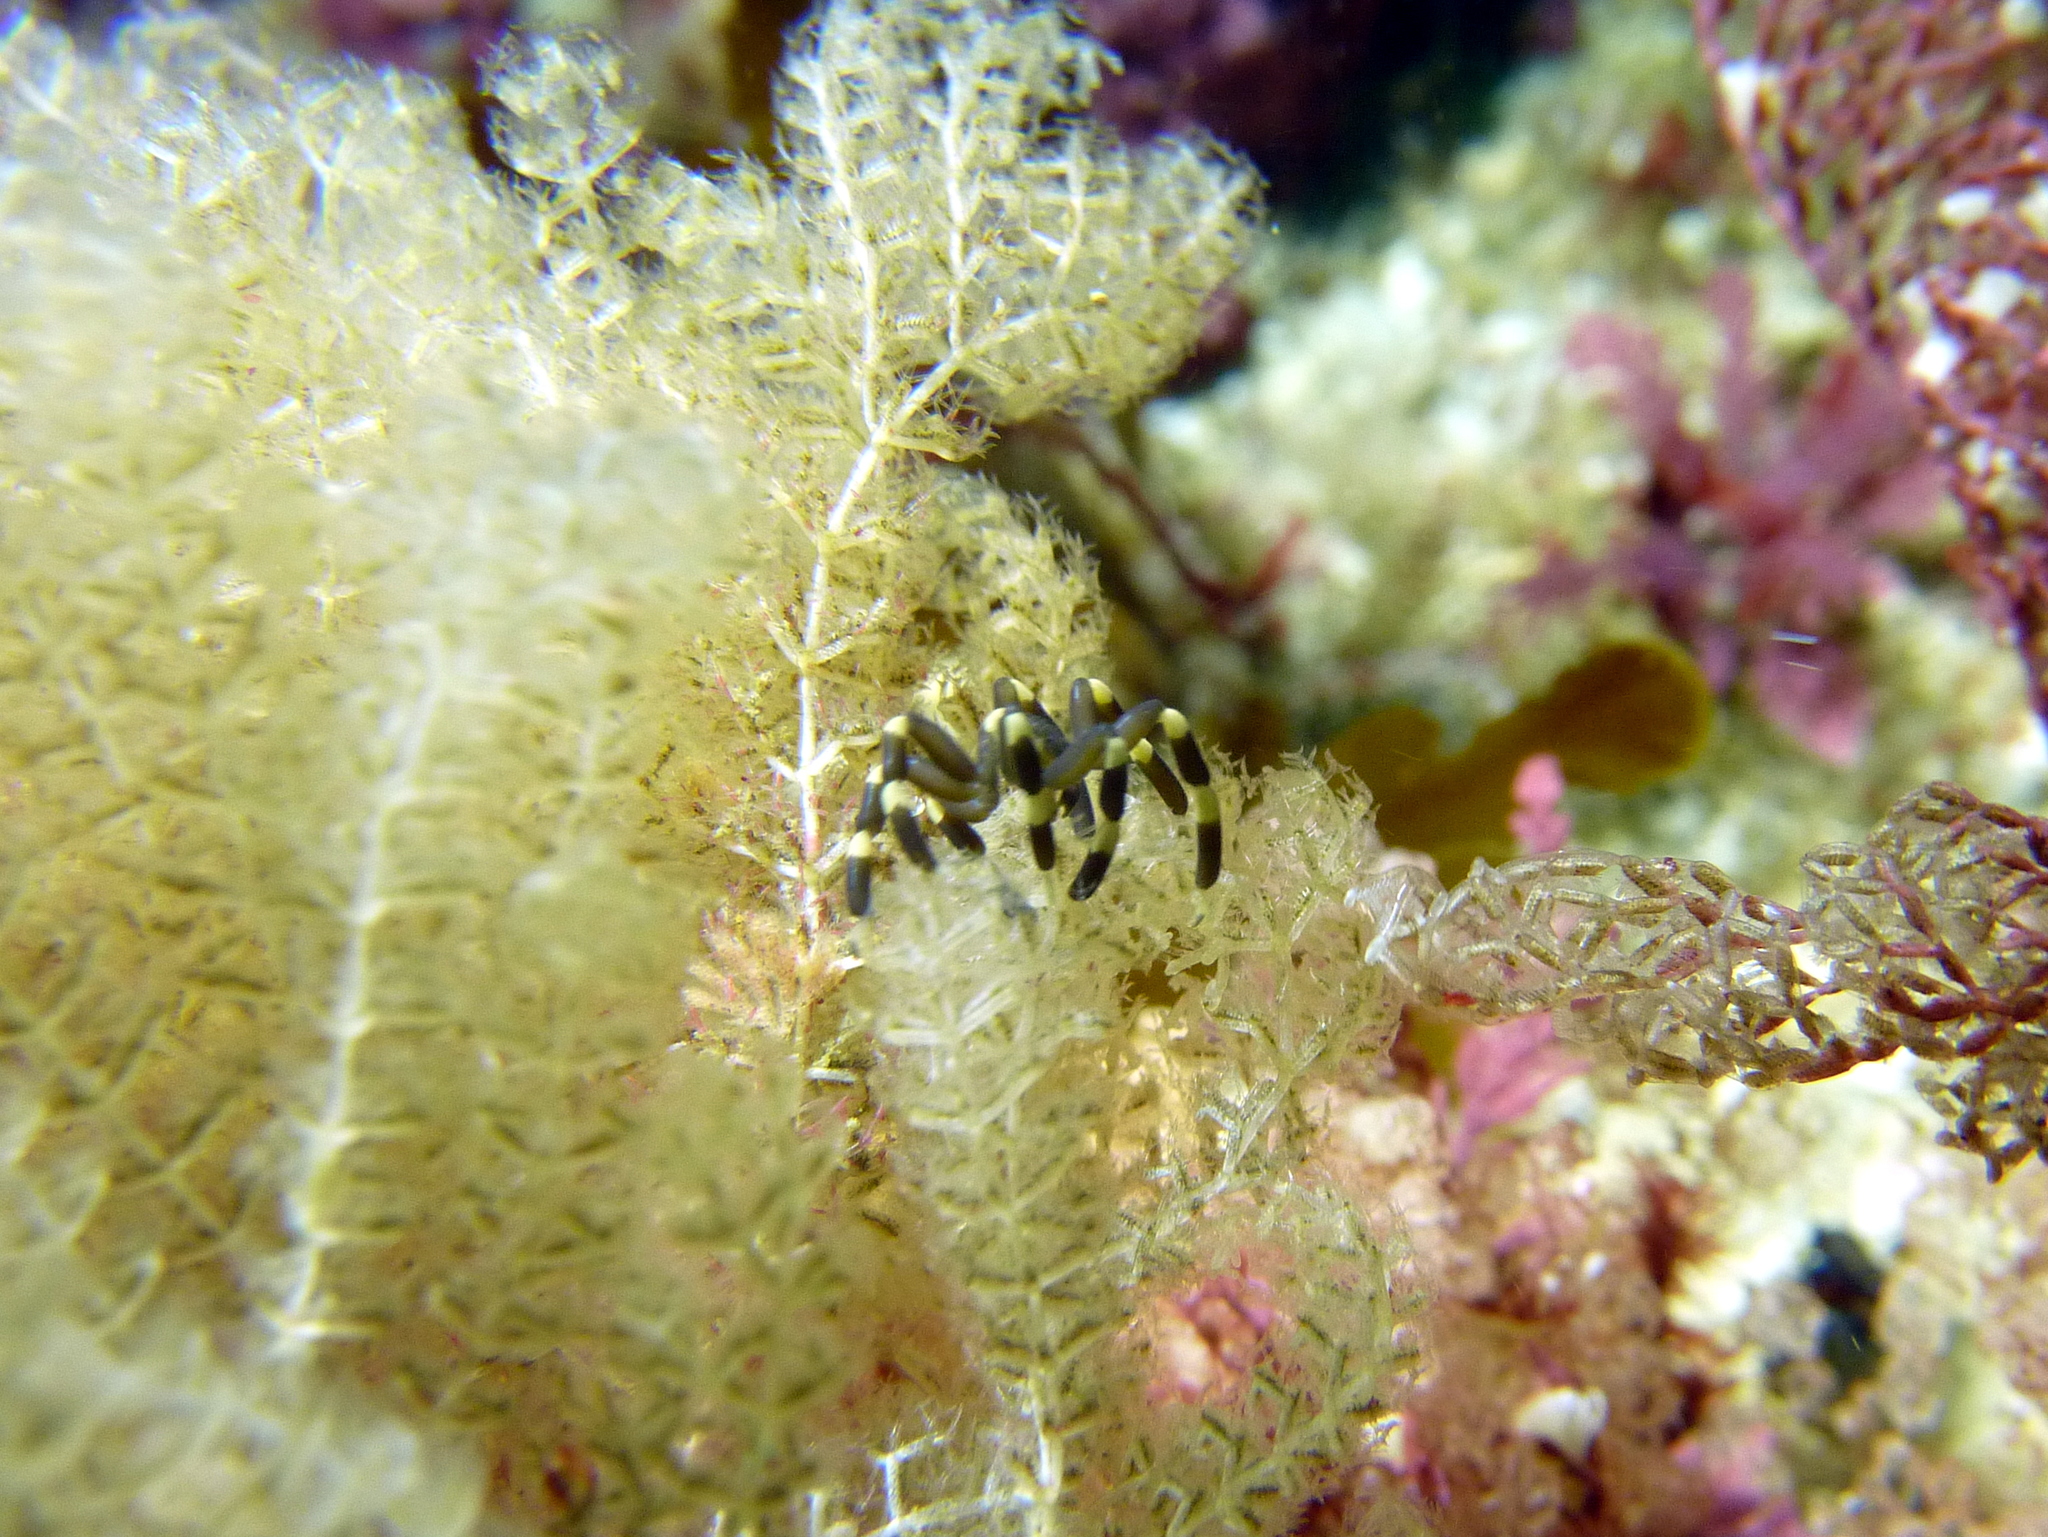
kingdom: Animalia
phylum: Arthropoda
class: Pycnogonida
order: Pantopoda
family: Callipallenidae
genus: Stylopallene
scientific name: Stylopallene cheilorhynchus
